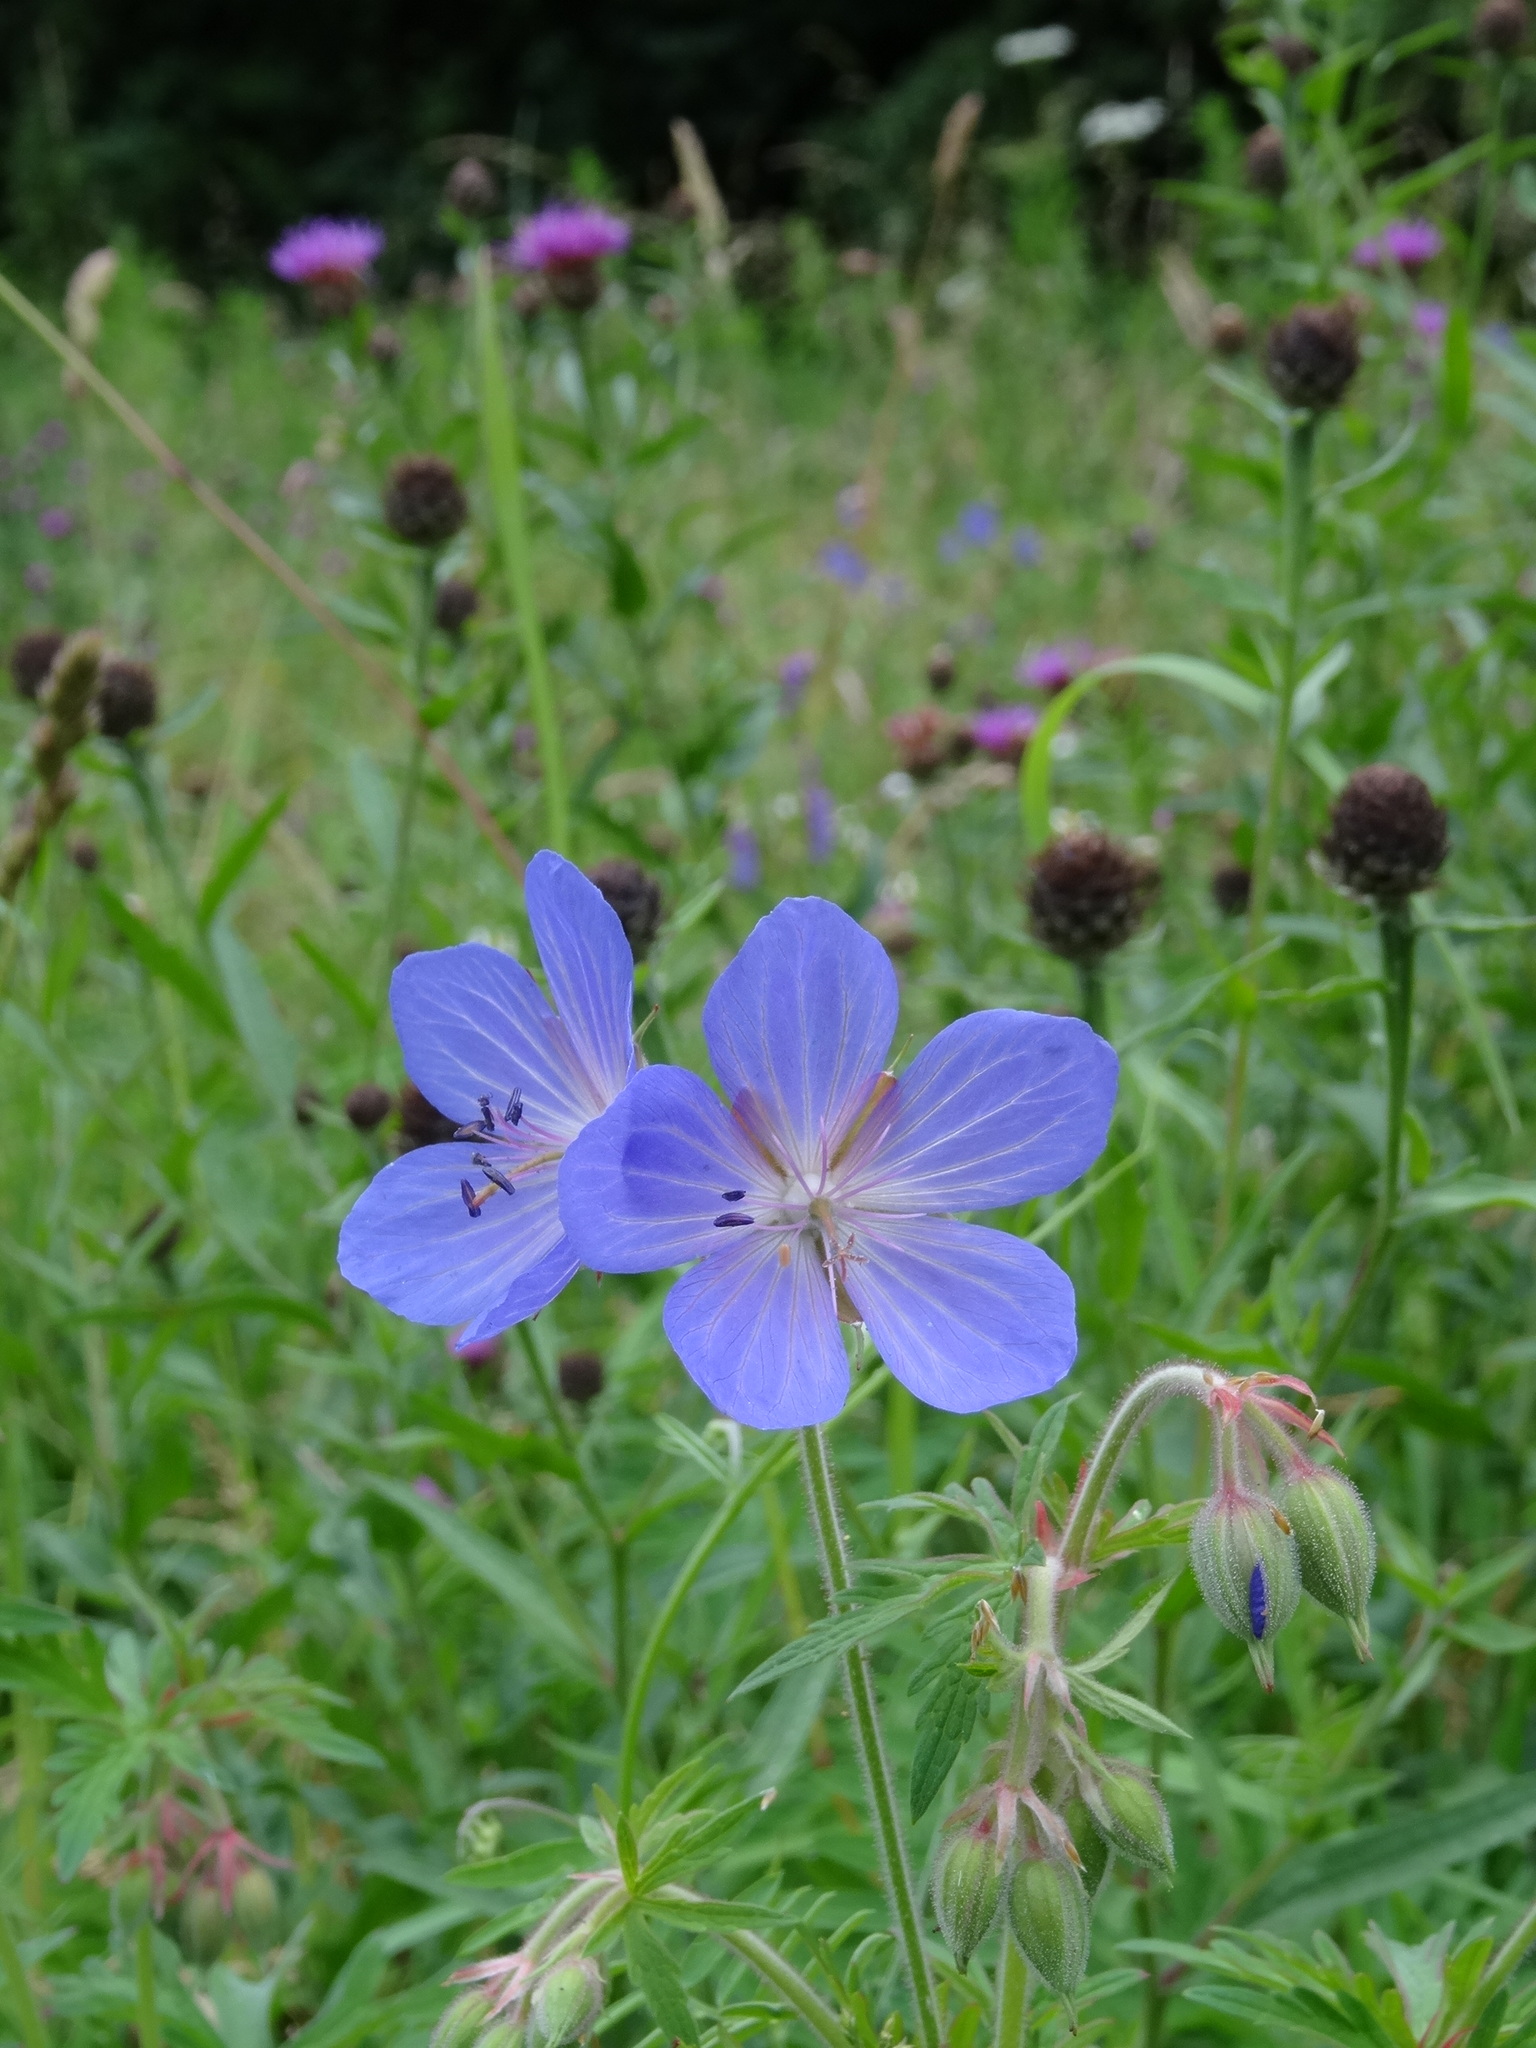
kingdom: Plantae
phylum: Tracheophyta
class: Magnoliopsida
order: Geraniales
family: Geraniaceae
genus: Geranium
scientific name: Geranium pratense
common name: Meadow crane's-bill
